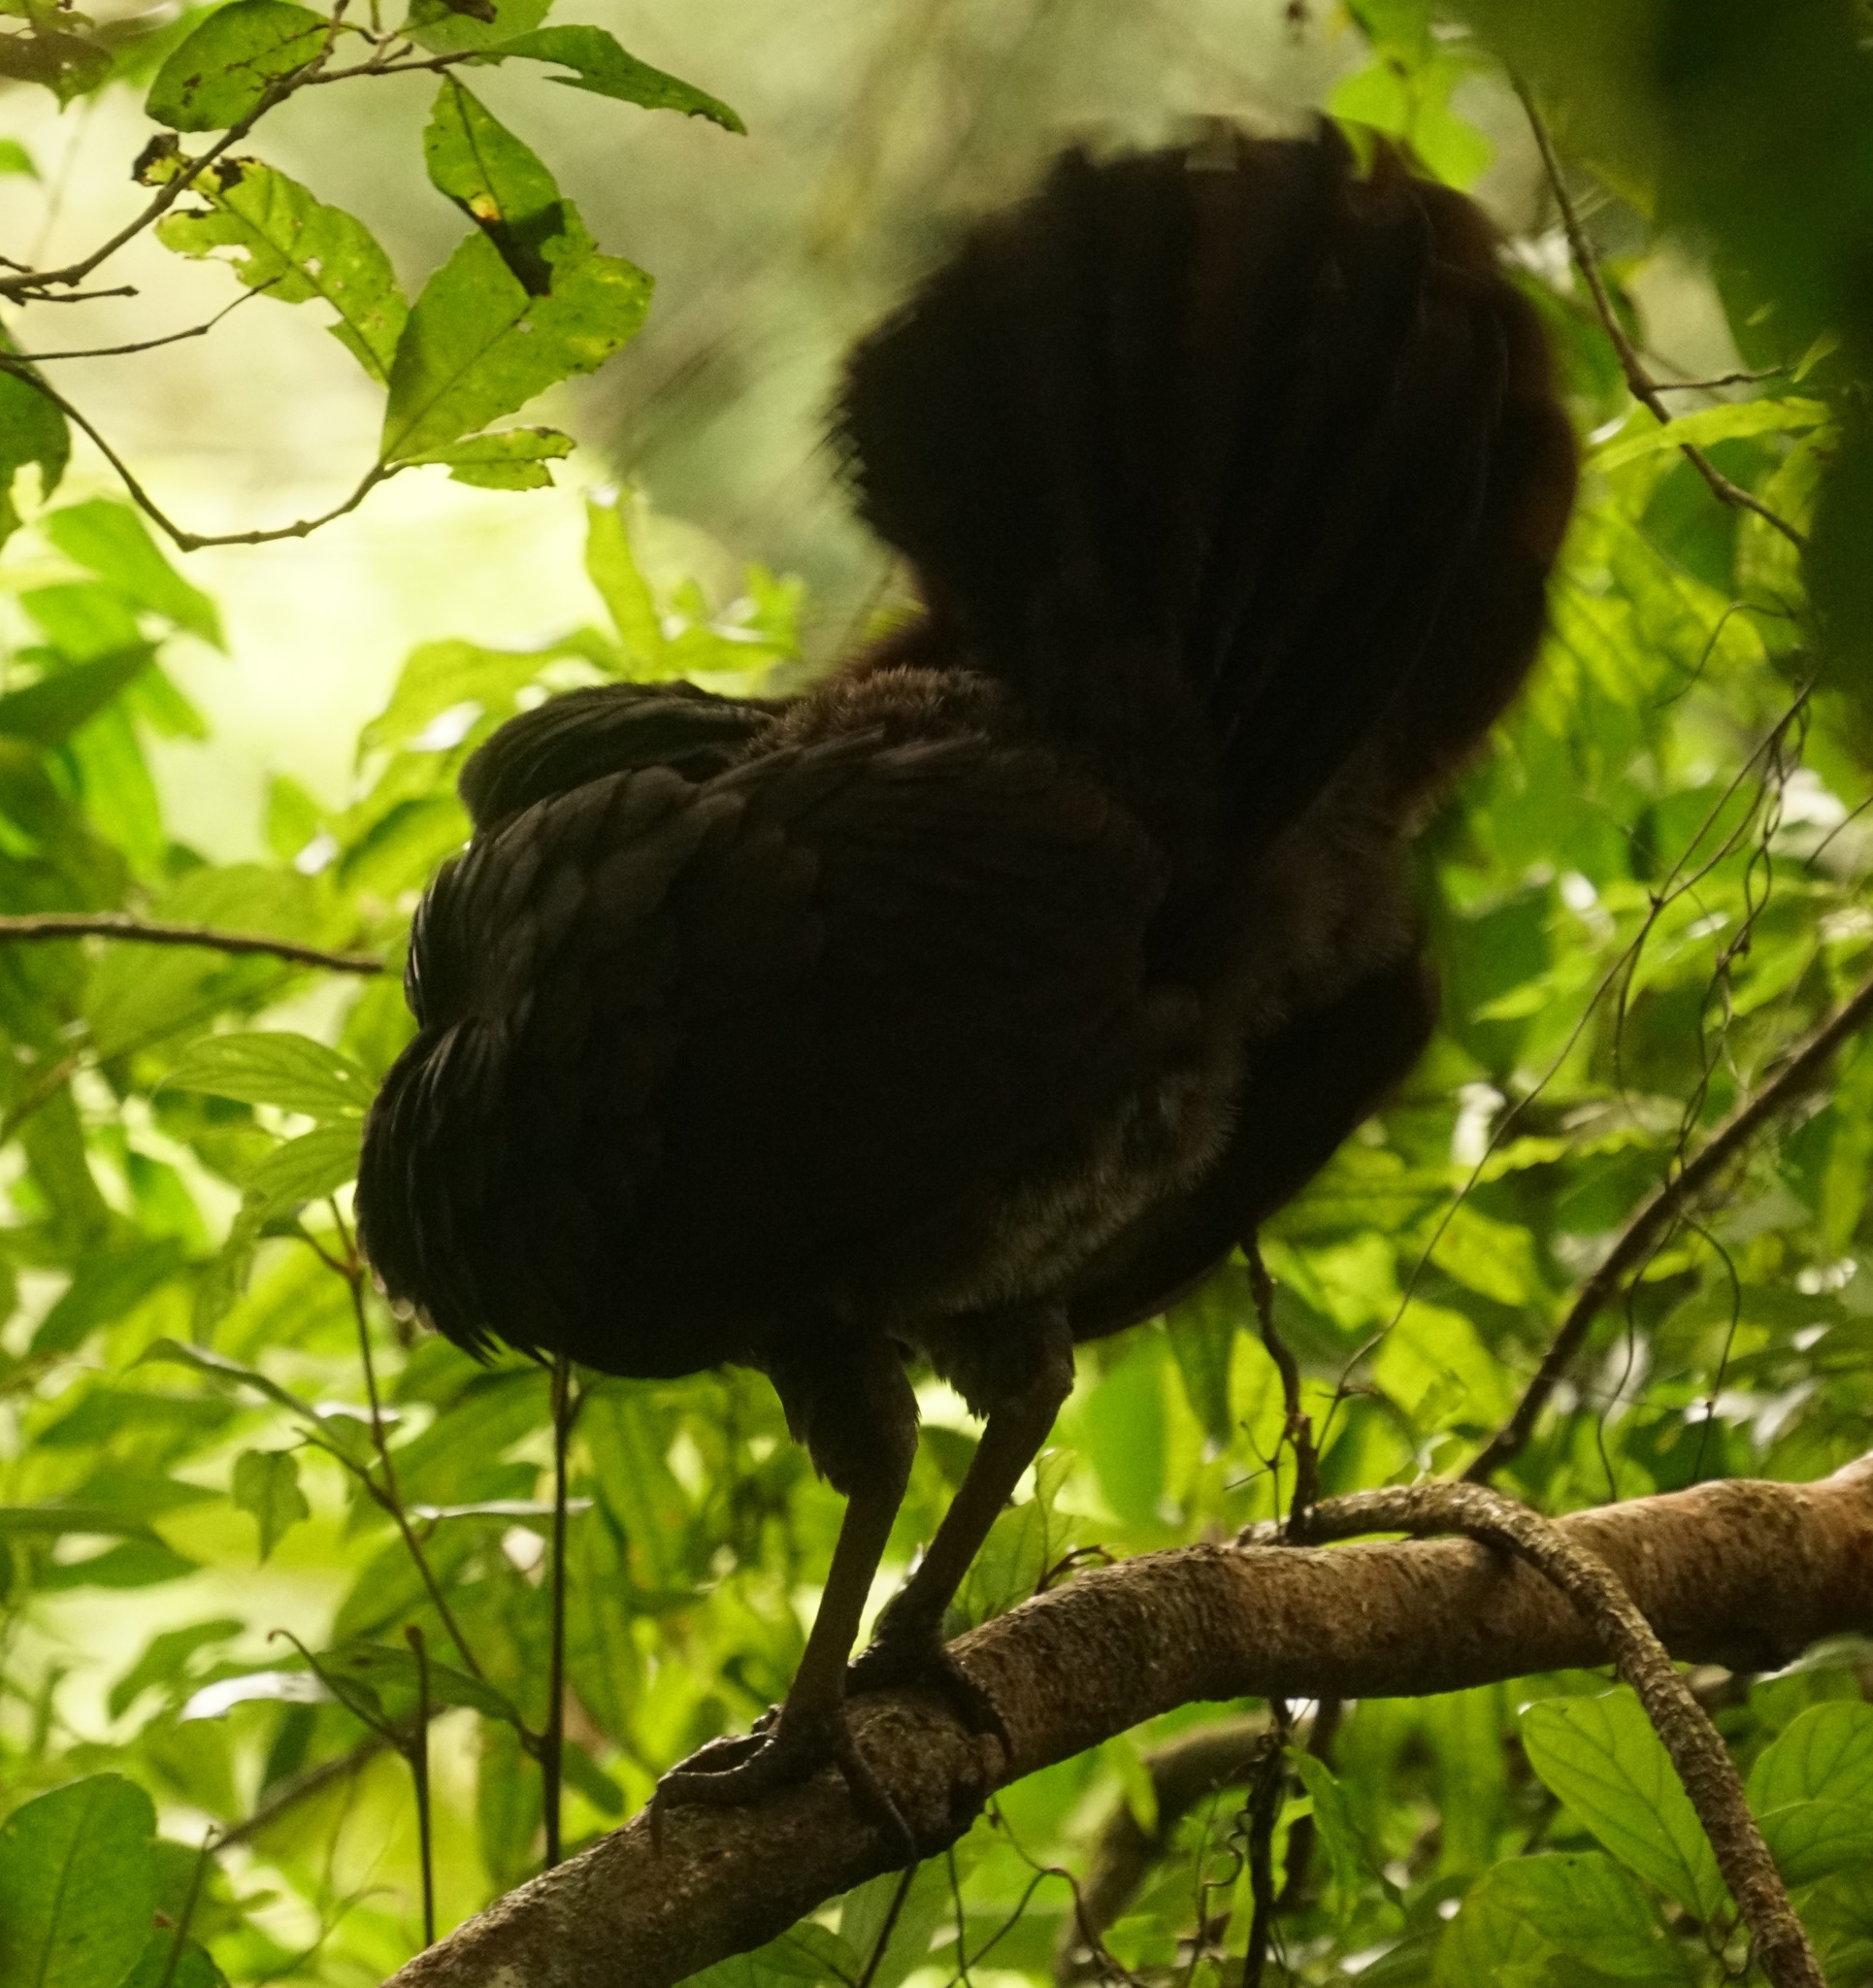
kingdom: Animalia
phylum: Chordata
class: Aves
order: Galliformes
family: Megapodiidae
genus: Alectura
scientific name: Alectura lathami
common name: Australian brushturkey
